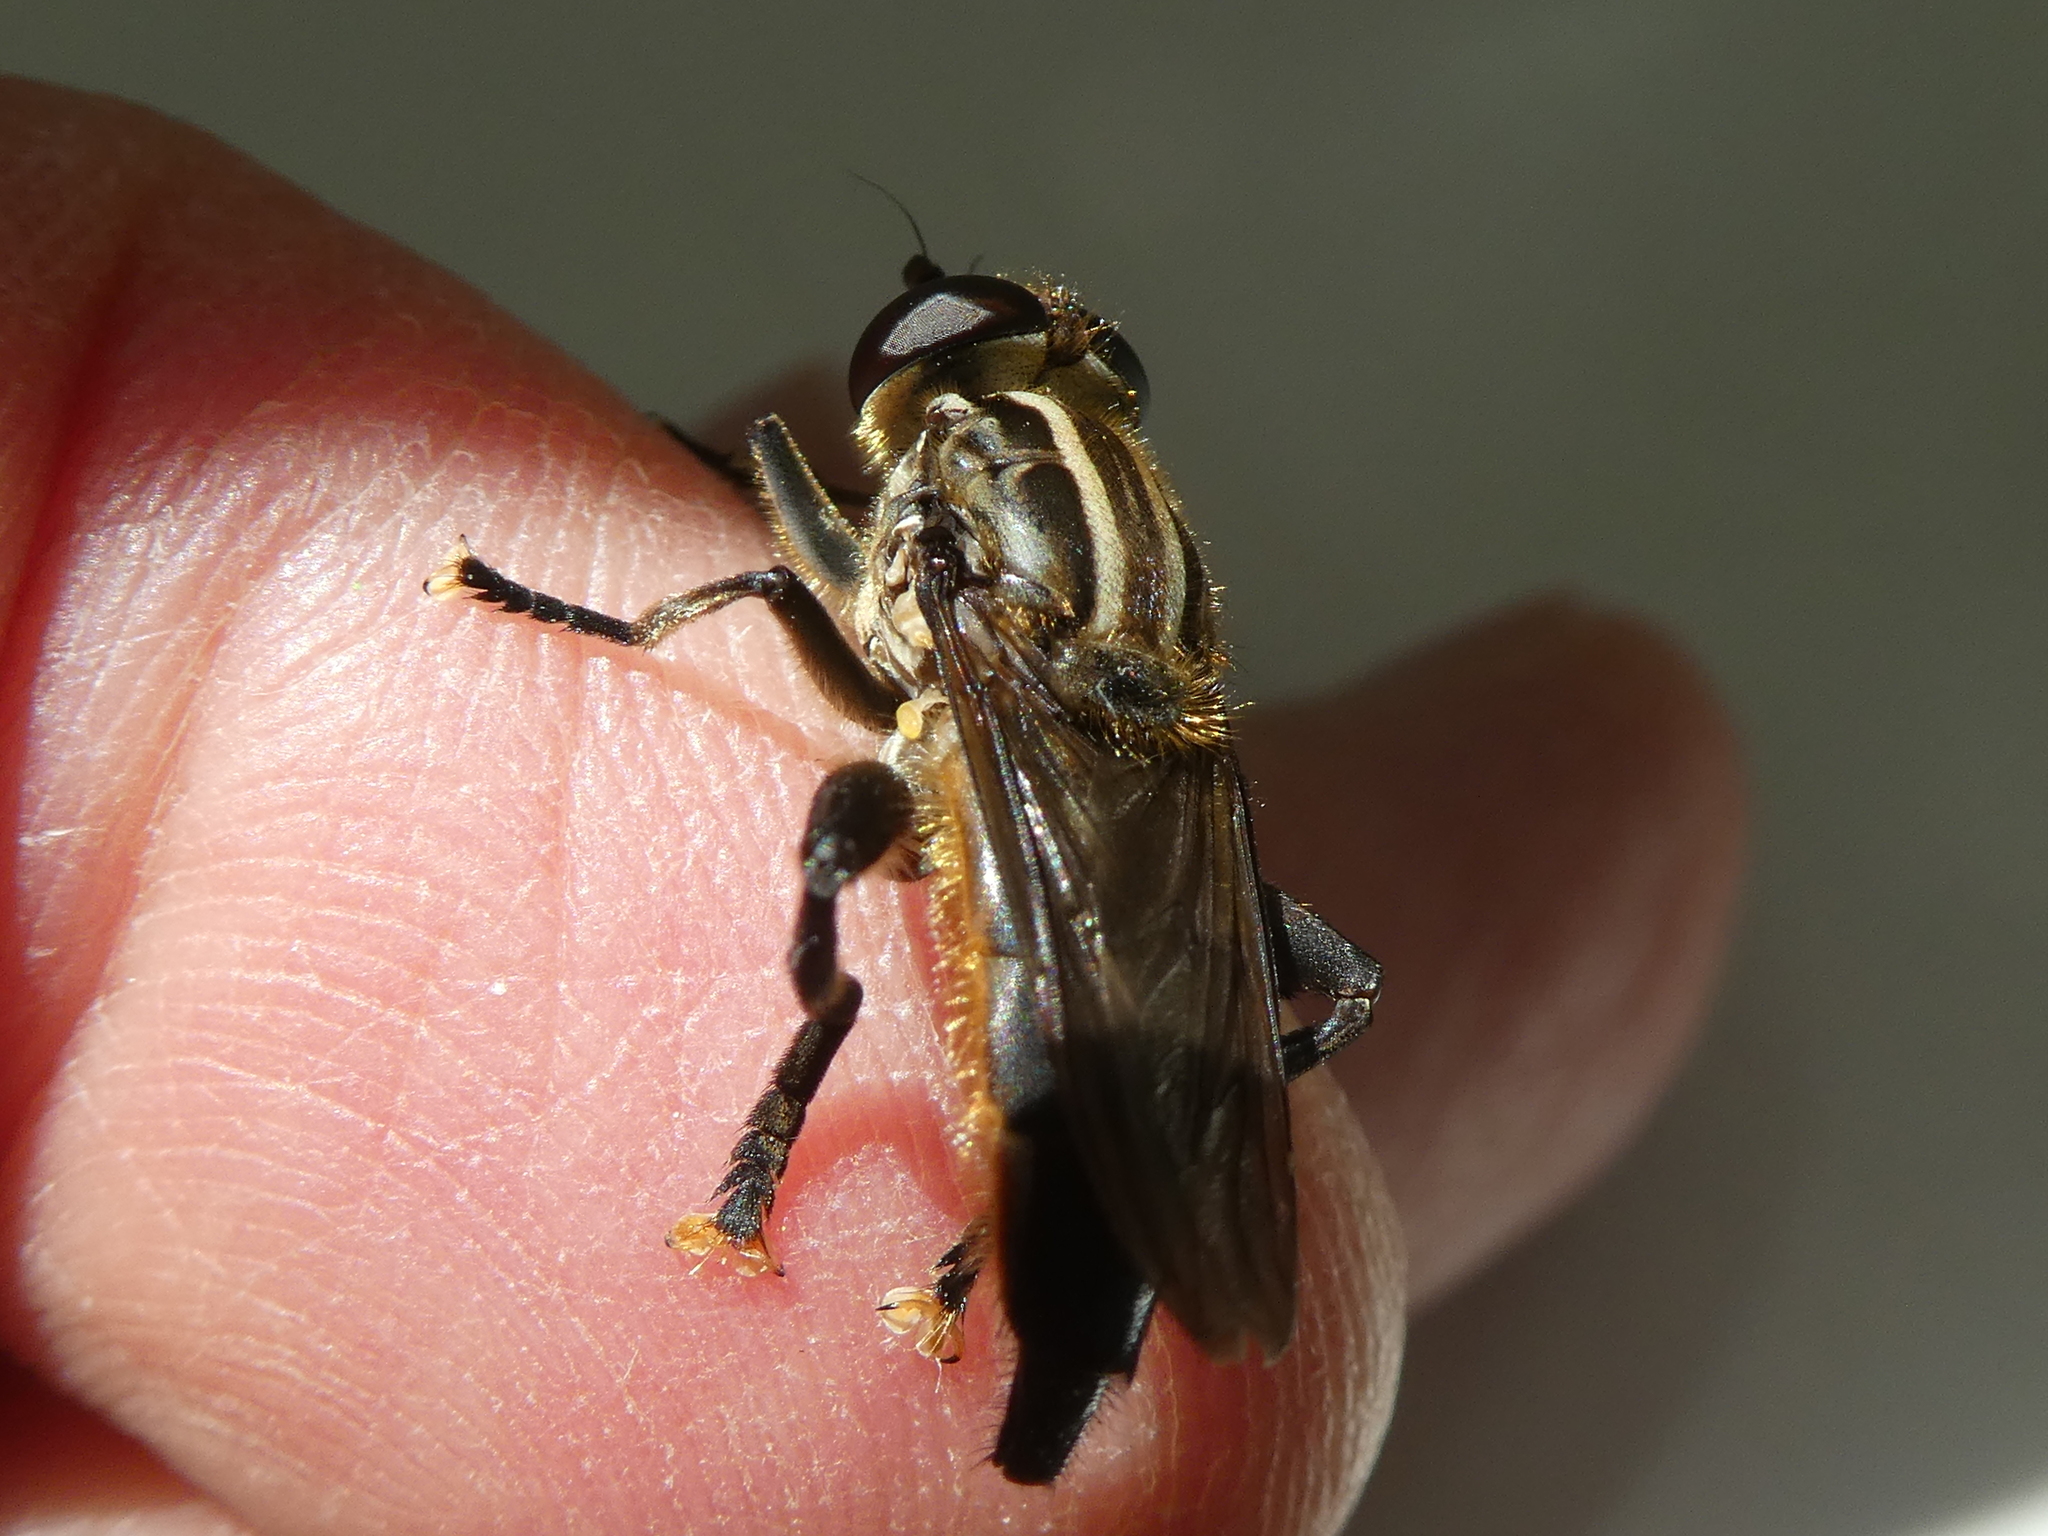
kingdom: Animalia
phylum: Arthropoda
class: Insecta
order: Diptera
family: Syrphidae
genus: Orthoprosopa
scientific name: Orthoprosopa bilineata
